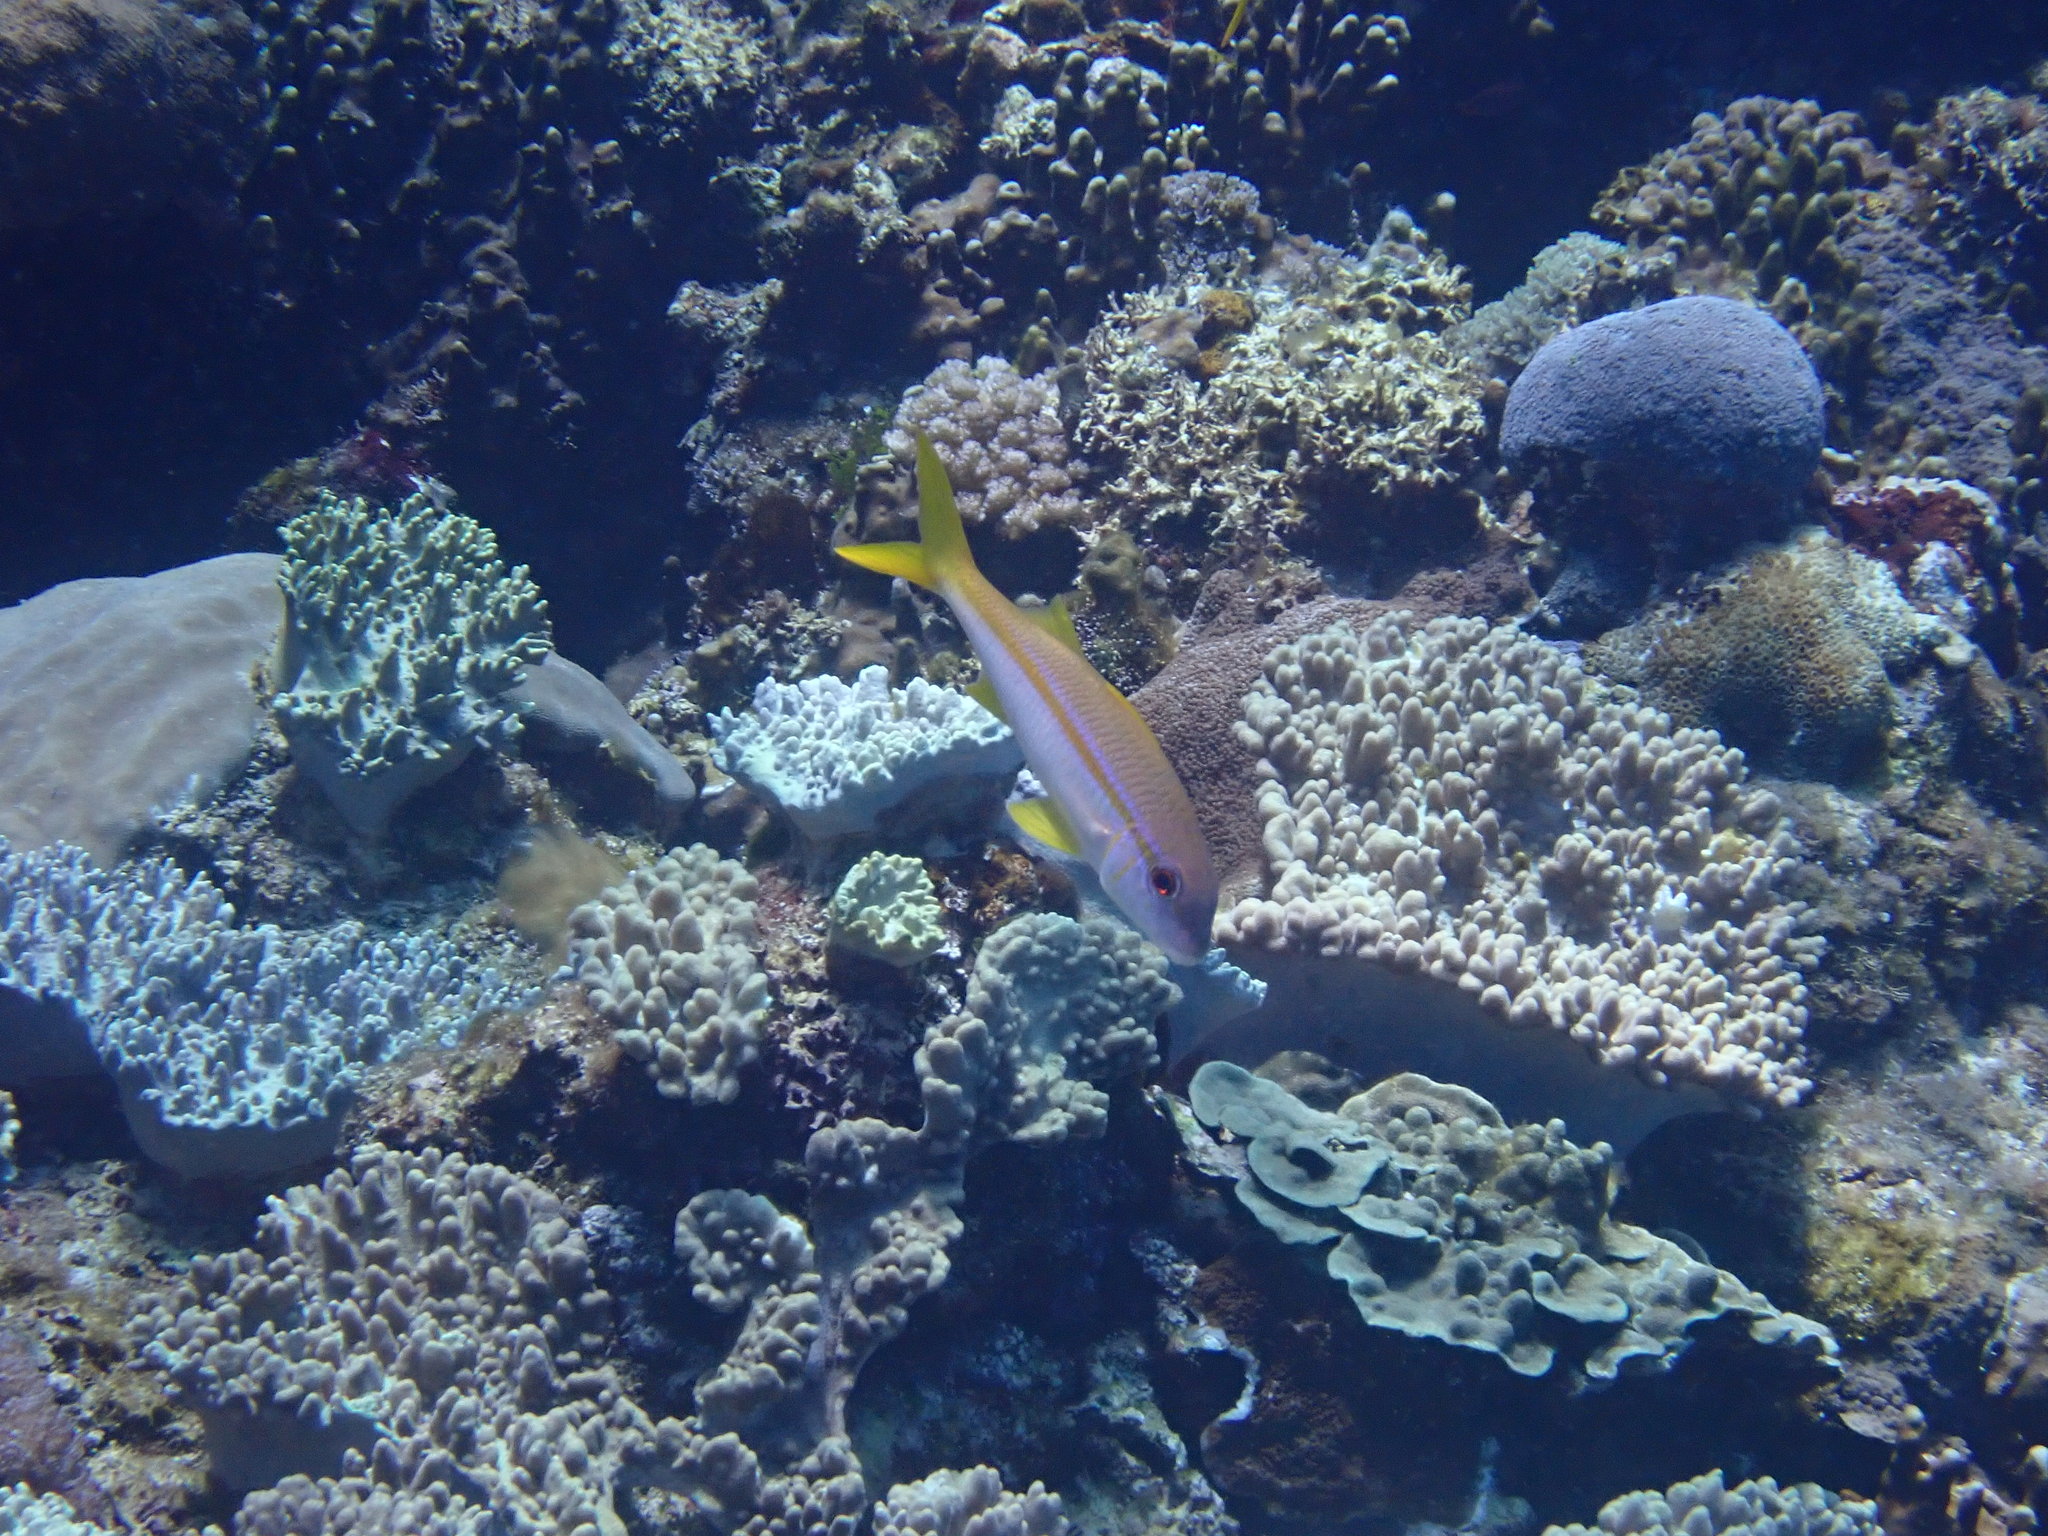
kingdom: Animalia
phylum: Chordata
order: Perciformes
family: Mullidae
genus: Mulloidichthys
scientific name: Mulloidichthys vanicolensis
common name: Yellowfin goatfish
